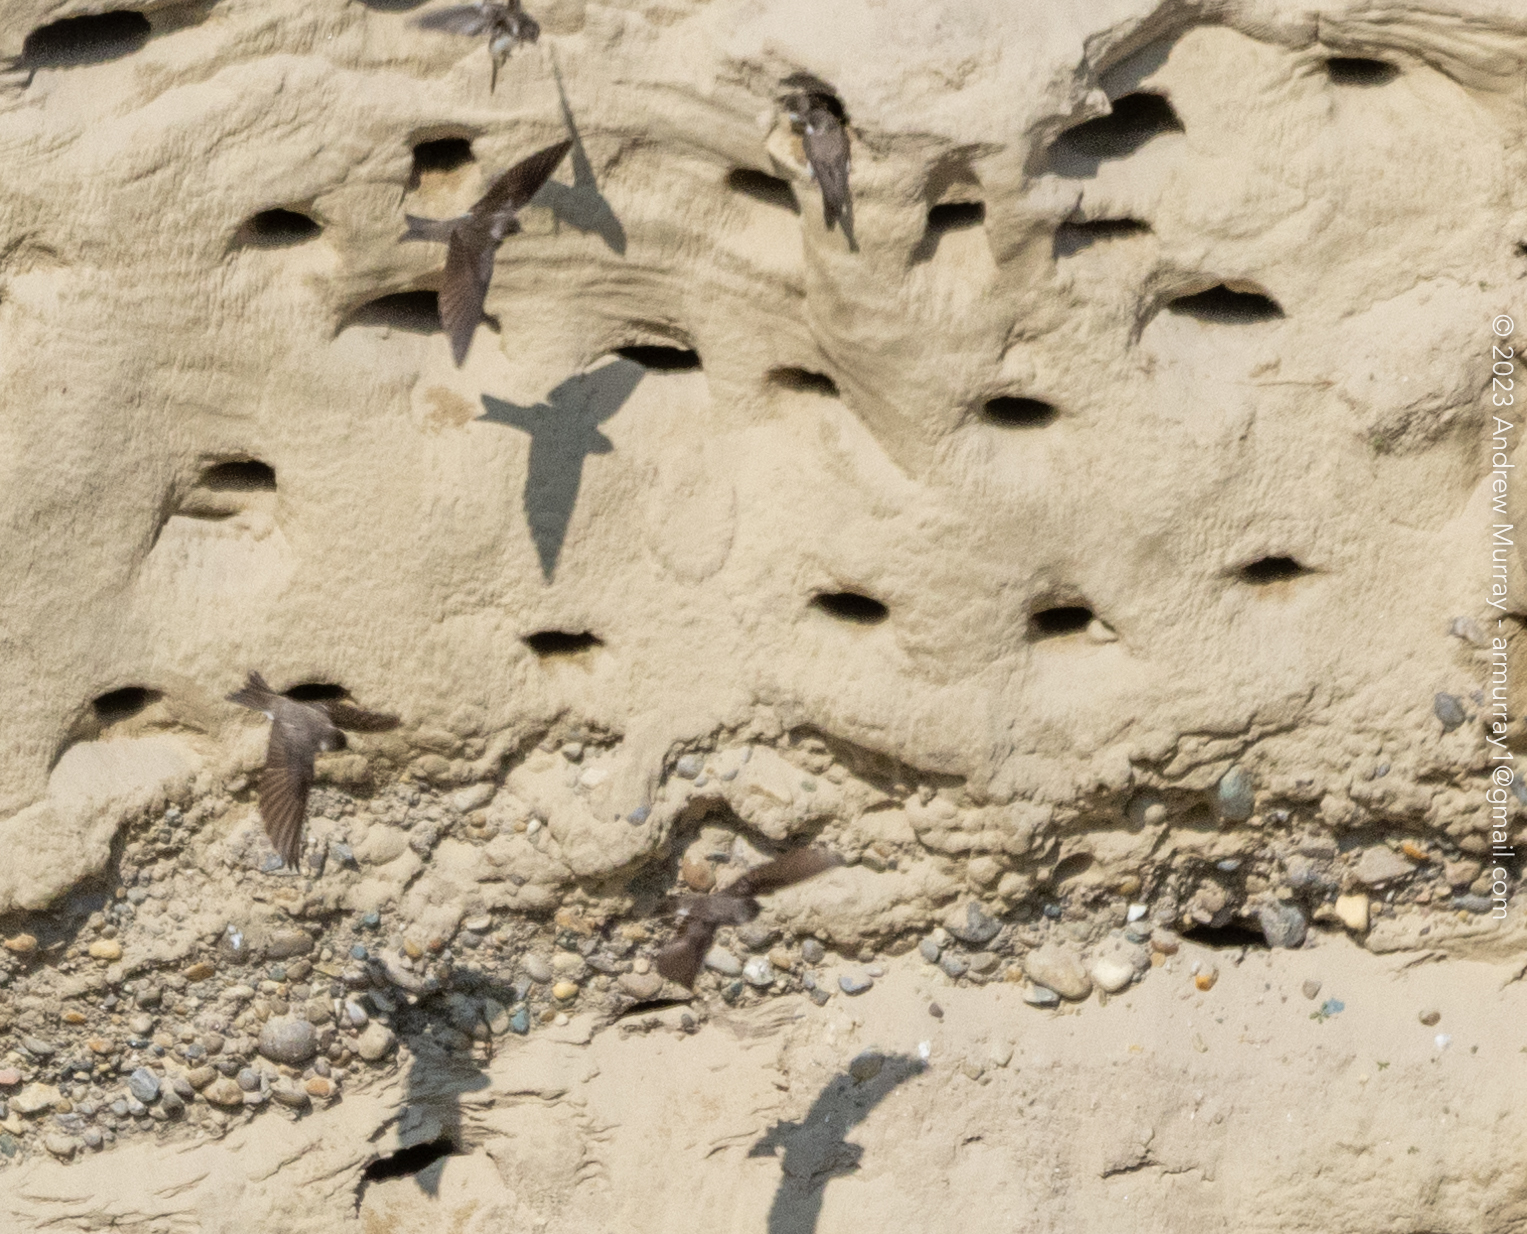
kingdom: Animalia
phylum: Chordata
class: Aves
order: Passeriformes
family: Hirundinidae
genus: Riparia
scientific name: Riparia riparia
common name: Sand martin
